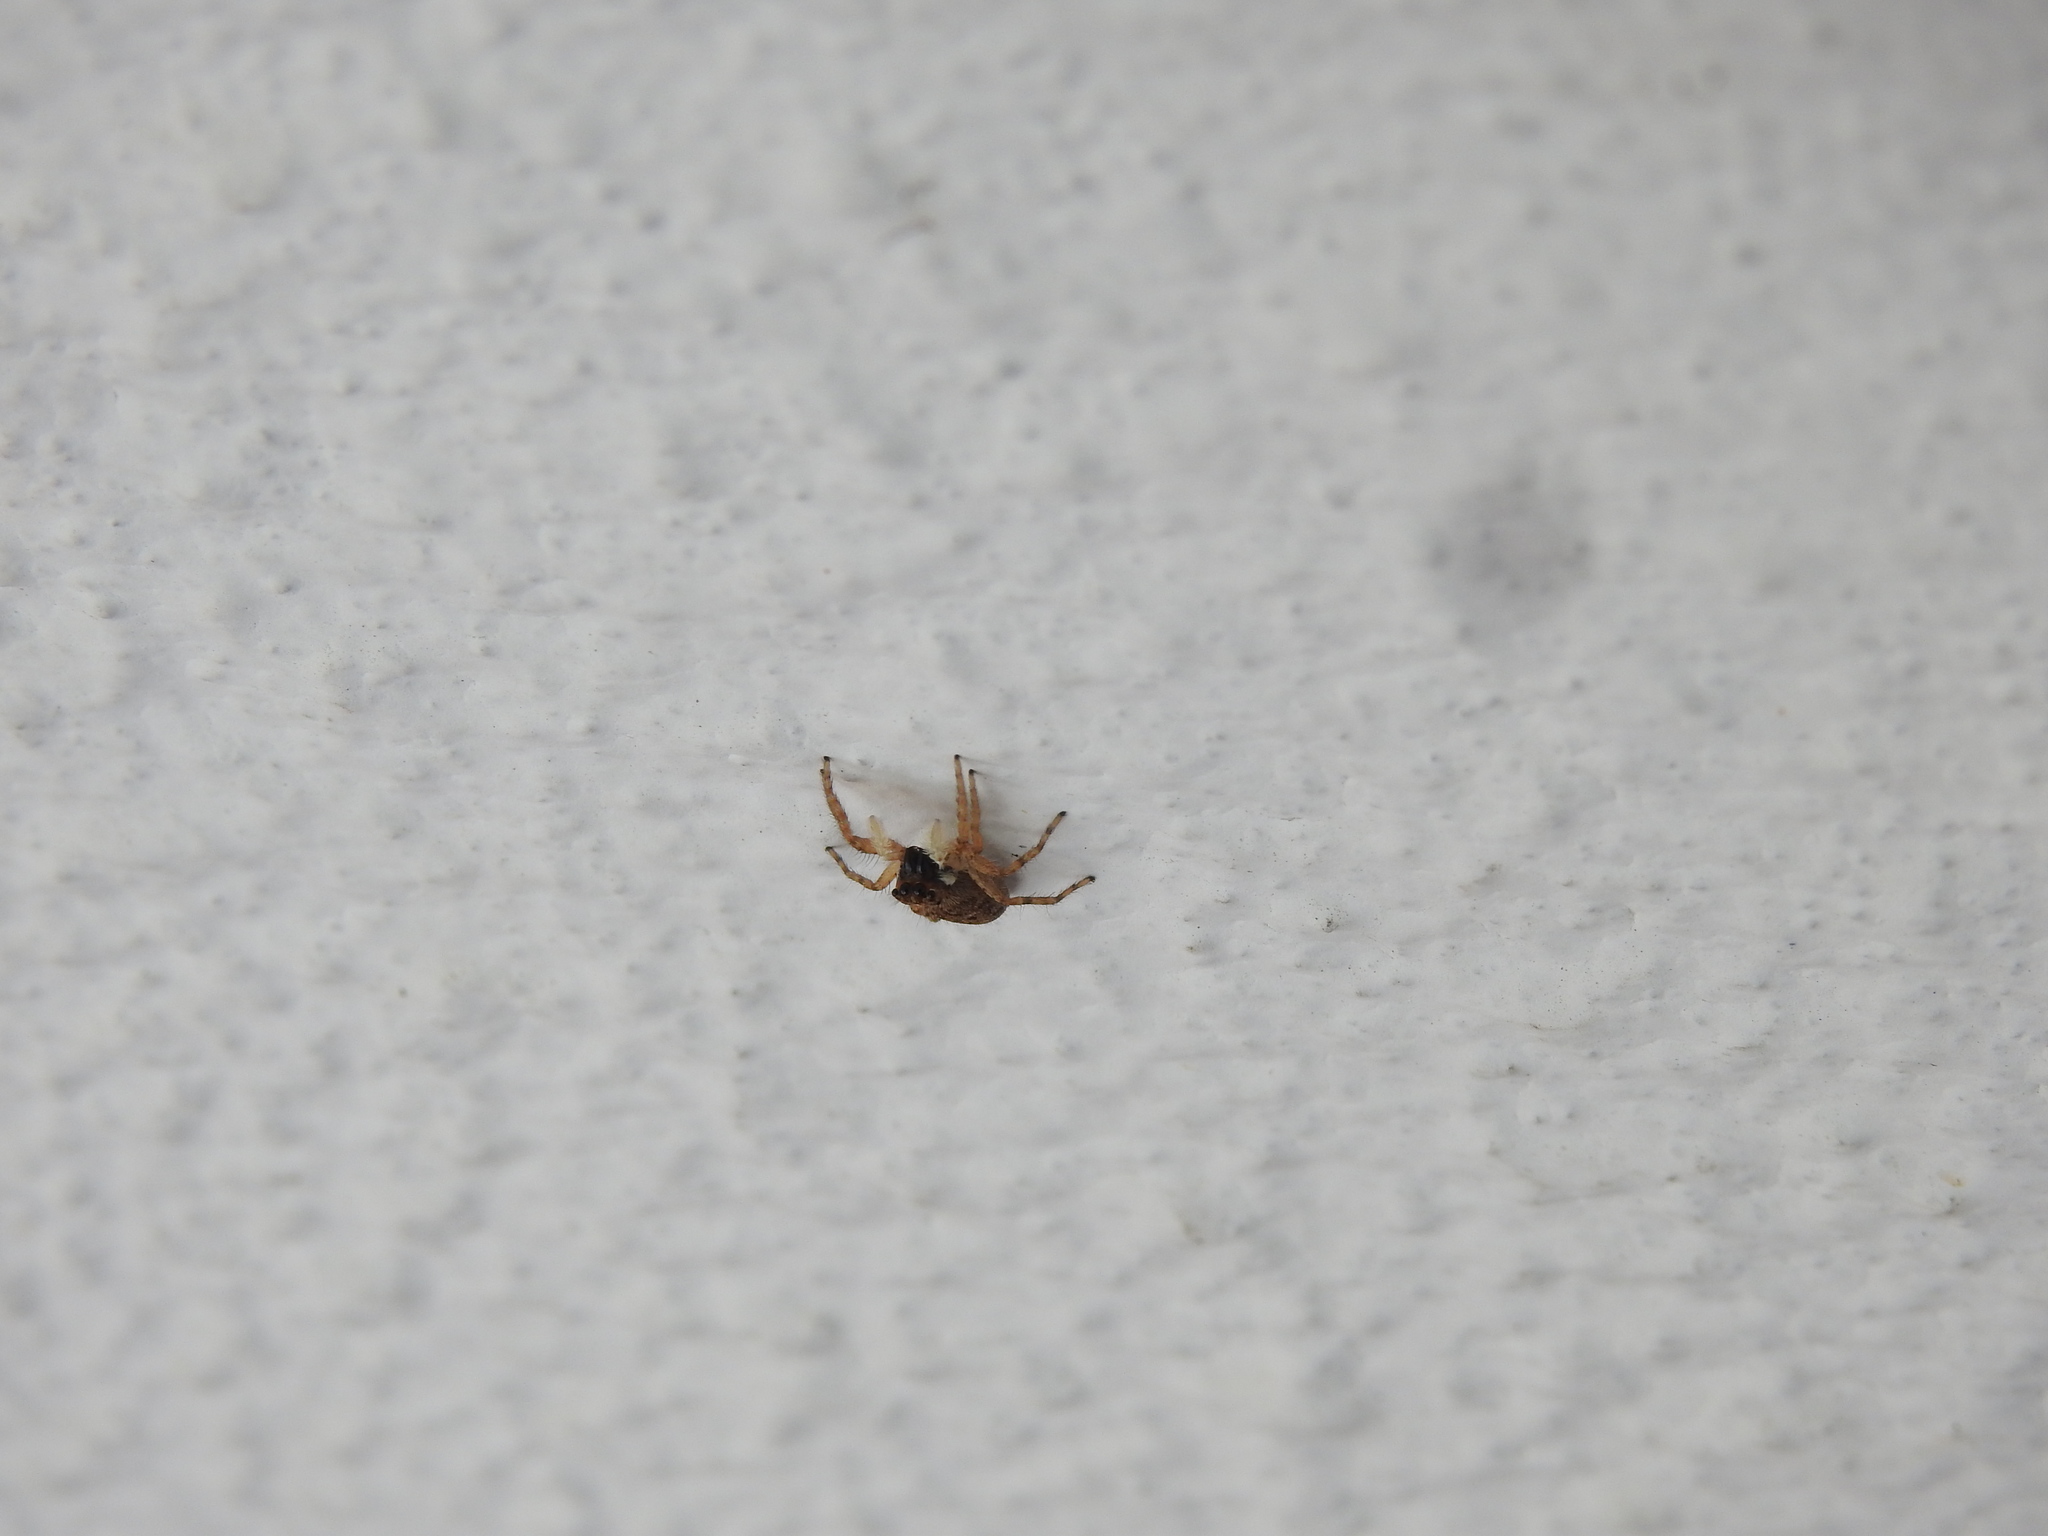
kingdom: Animalia
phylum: Arthropoda
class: Arachnida
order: Araneae
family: Salticidae
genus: Menemerus
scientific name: Menemerus semilimbatus
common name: Jumping spider
